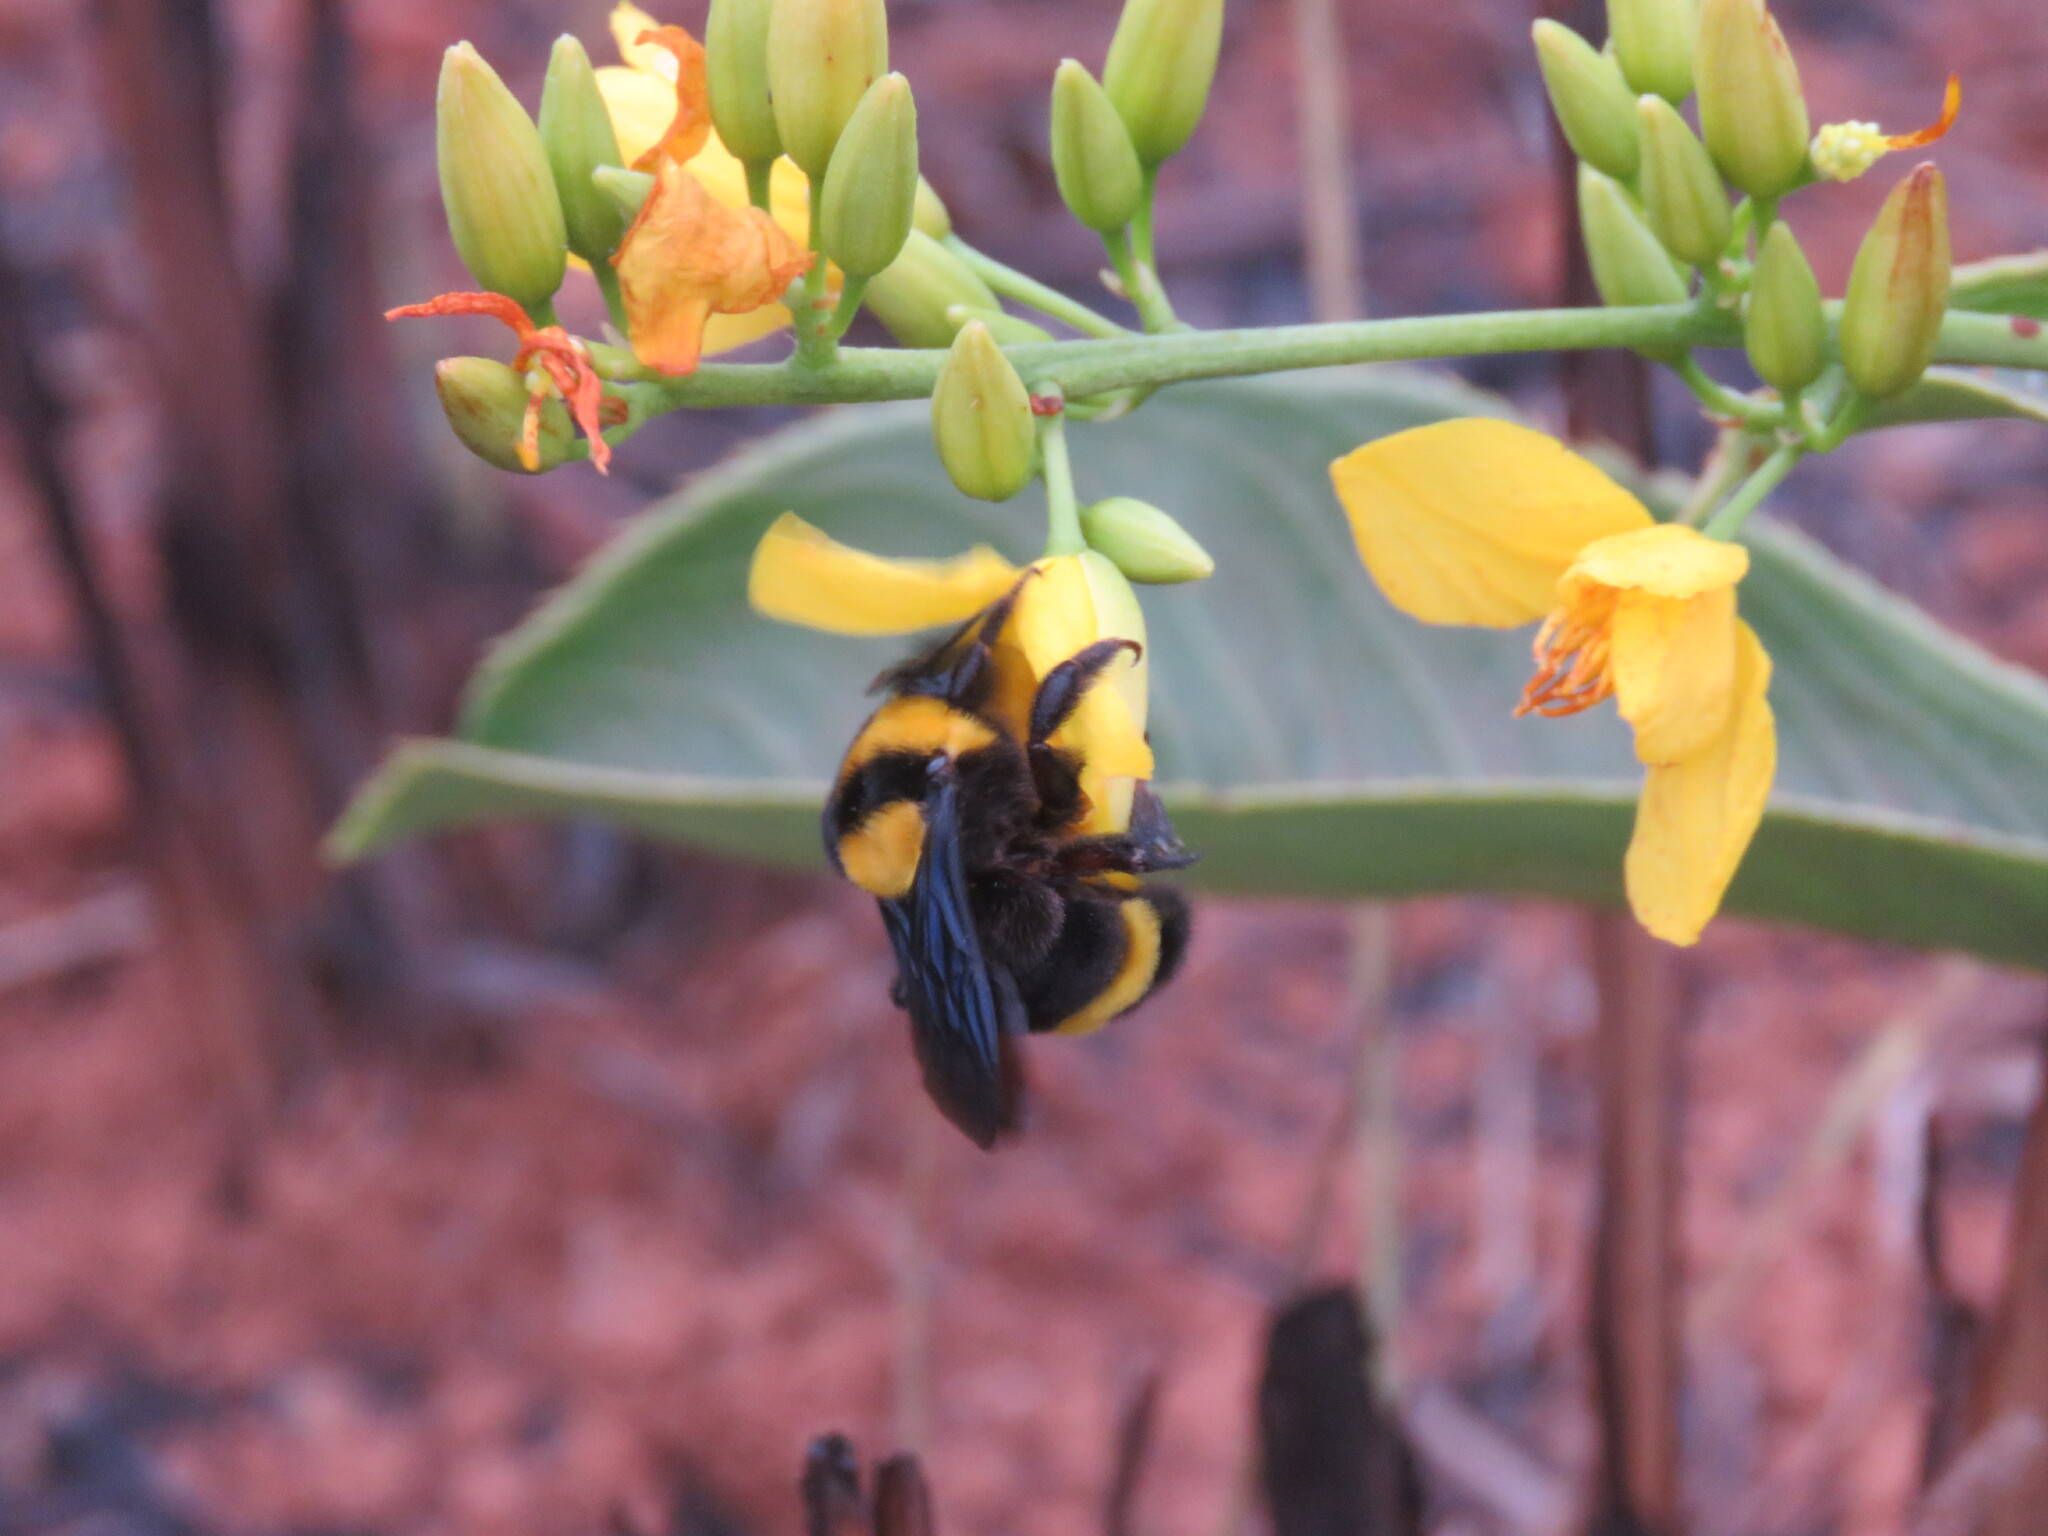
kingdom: Animalia
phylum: Arthropoda
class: Insecta
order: Hymenoptera
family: Apidae
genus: Bombus
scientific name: Bombus transversalis
